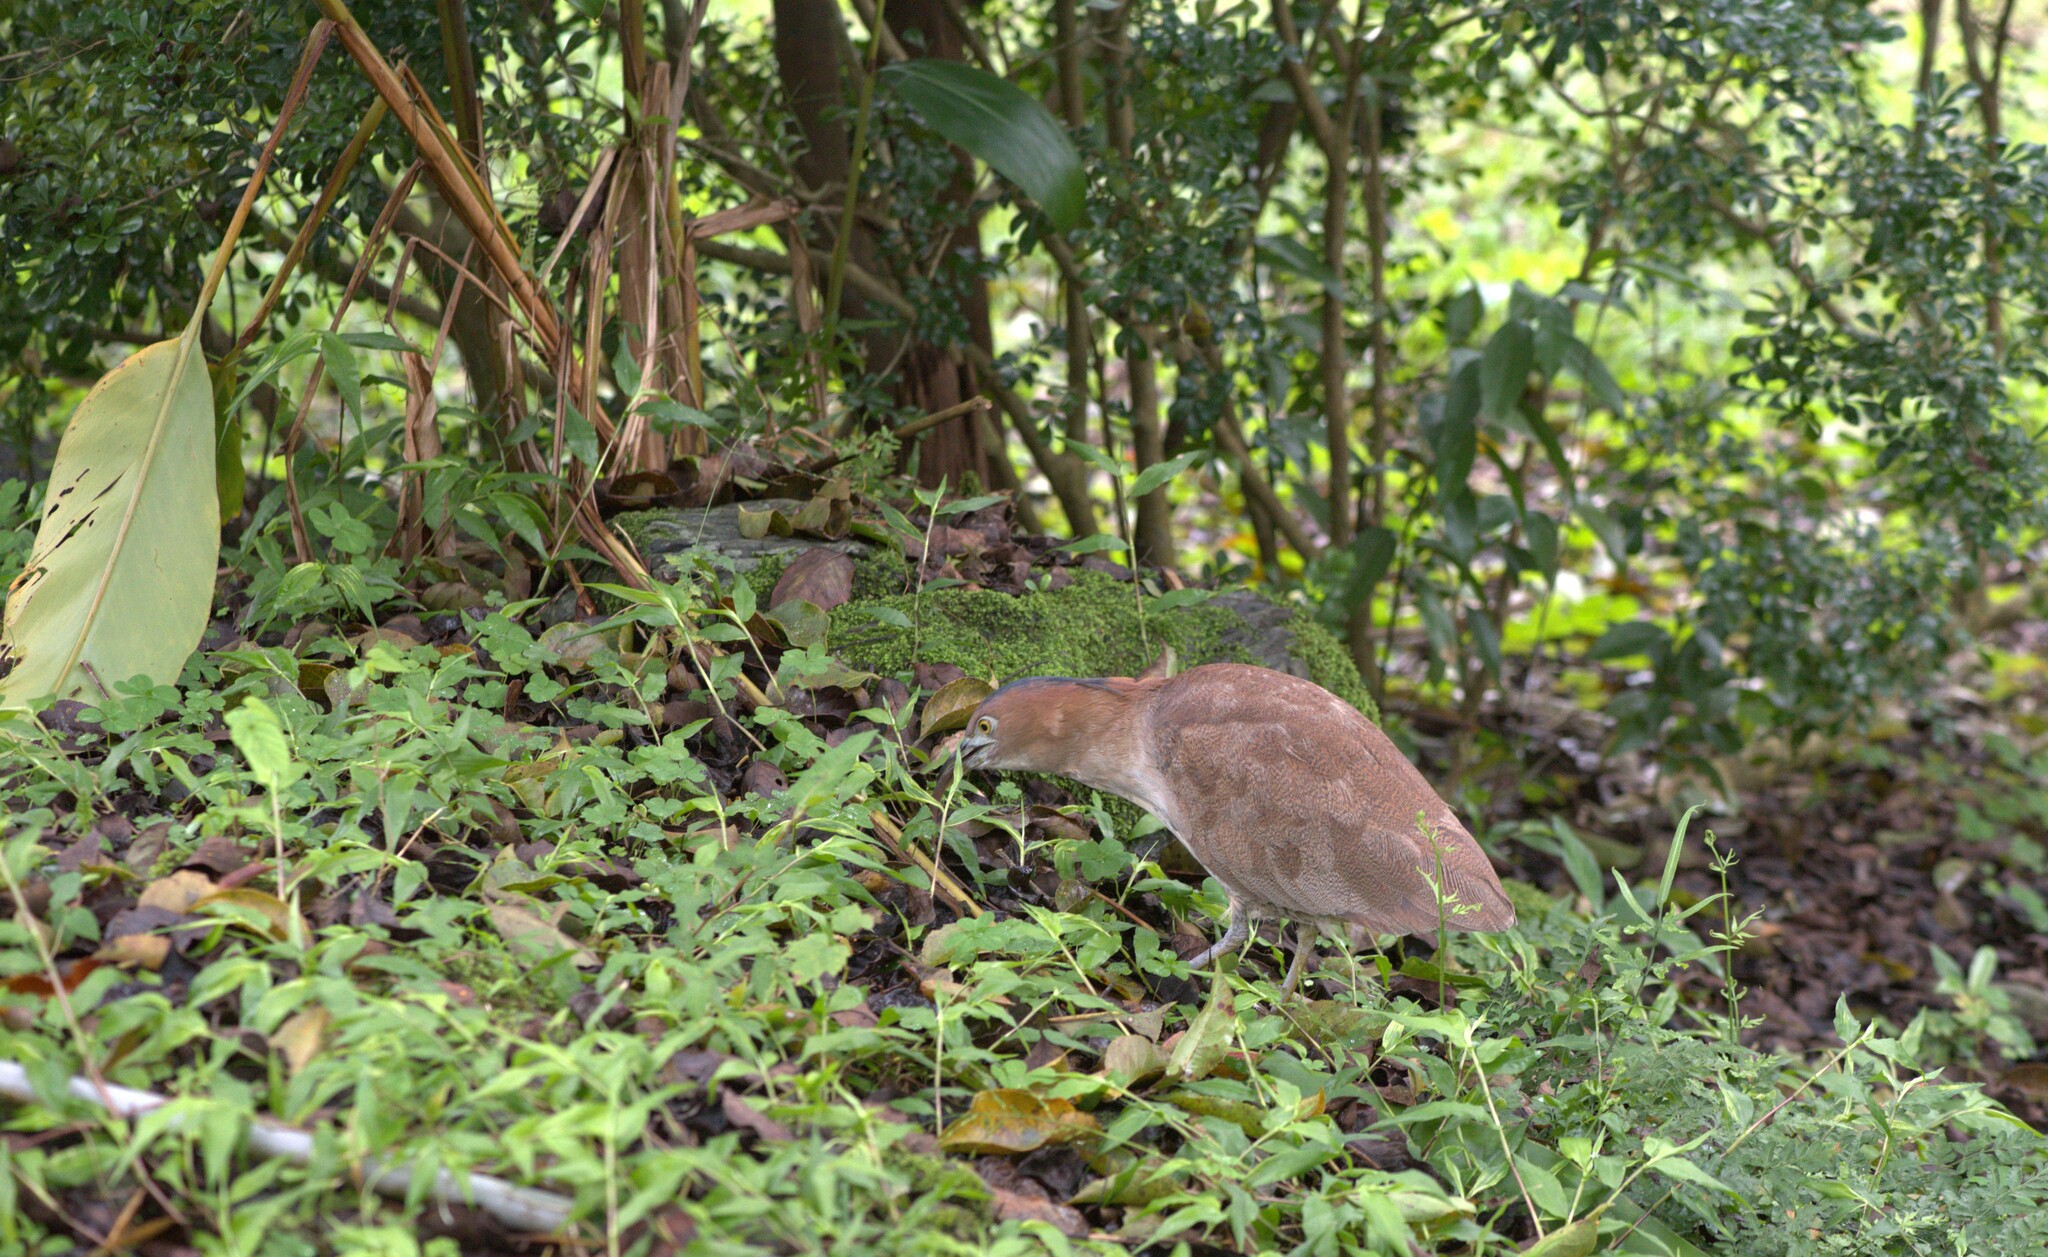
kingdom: Animalia
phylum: Chordata
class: Aves
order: Pelecaniformes
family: Ardeidae
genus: Gorsachius
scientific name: Gorsachius melanolophus
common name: Malayan night heron
